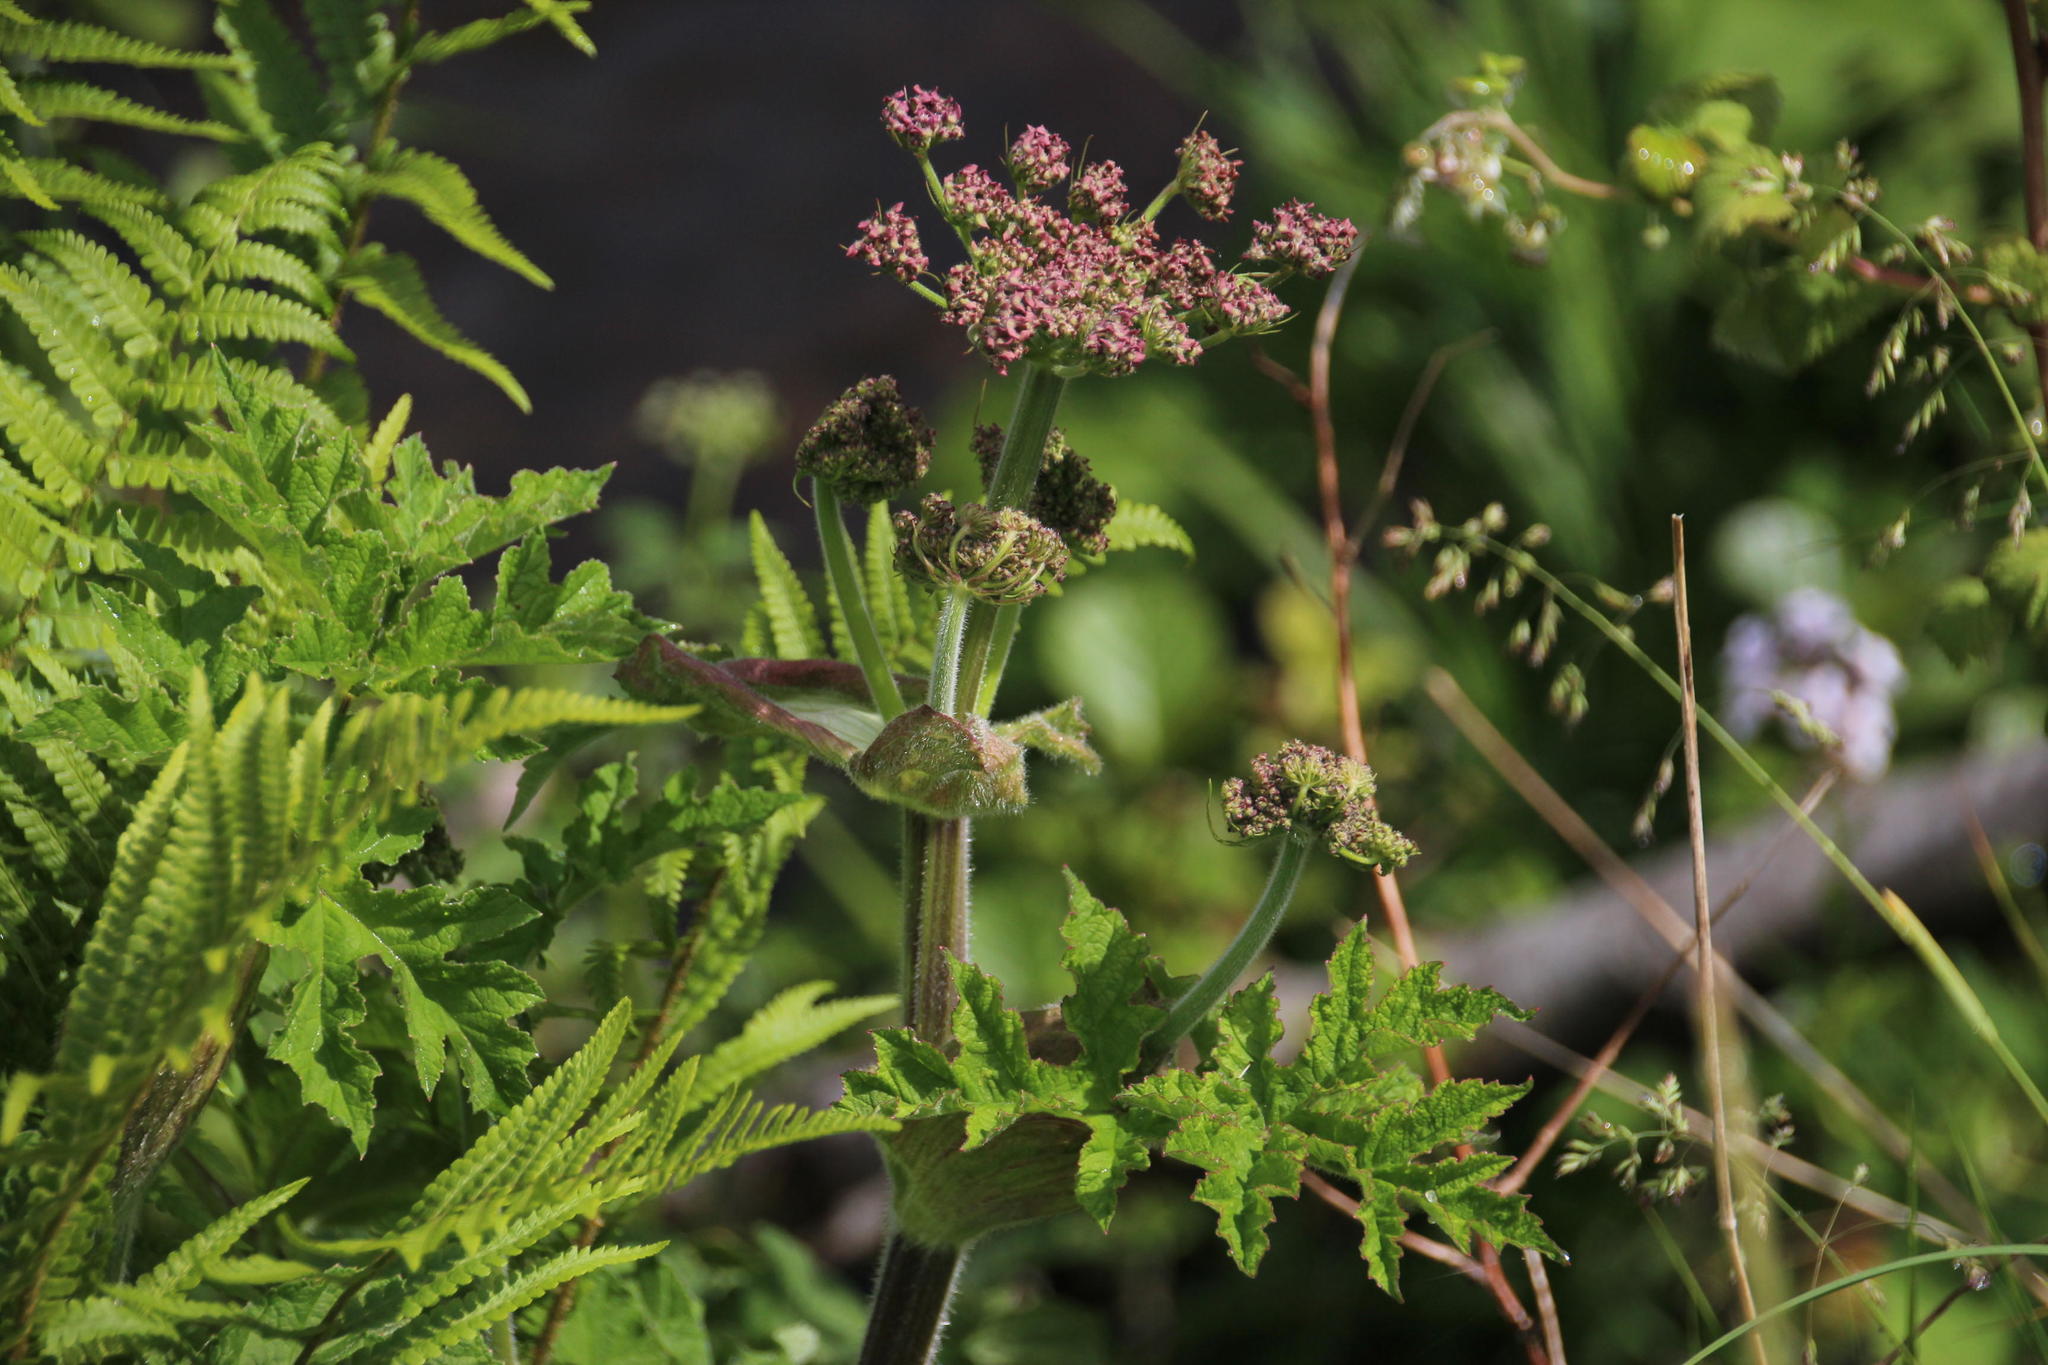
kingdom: Plantae
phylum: Tracheophyta
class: Magnoliopsida
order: Apiales
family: Apiaceae
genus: Heracleum
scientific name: Heracleum sphondylium
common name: Hogweed
